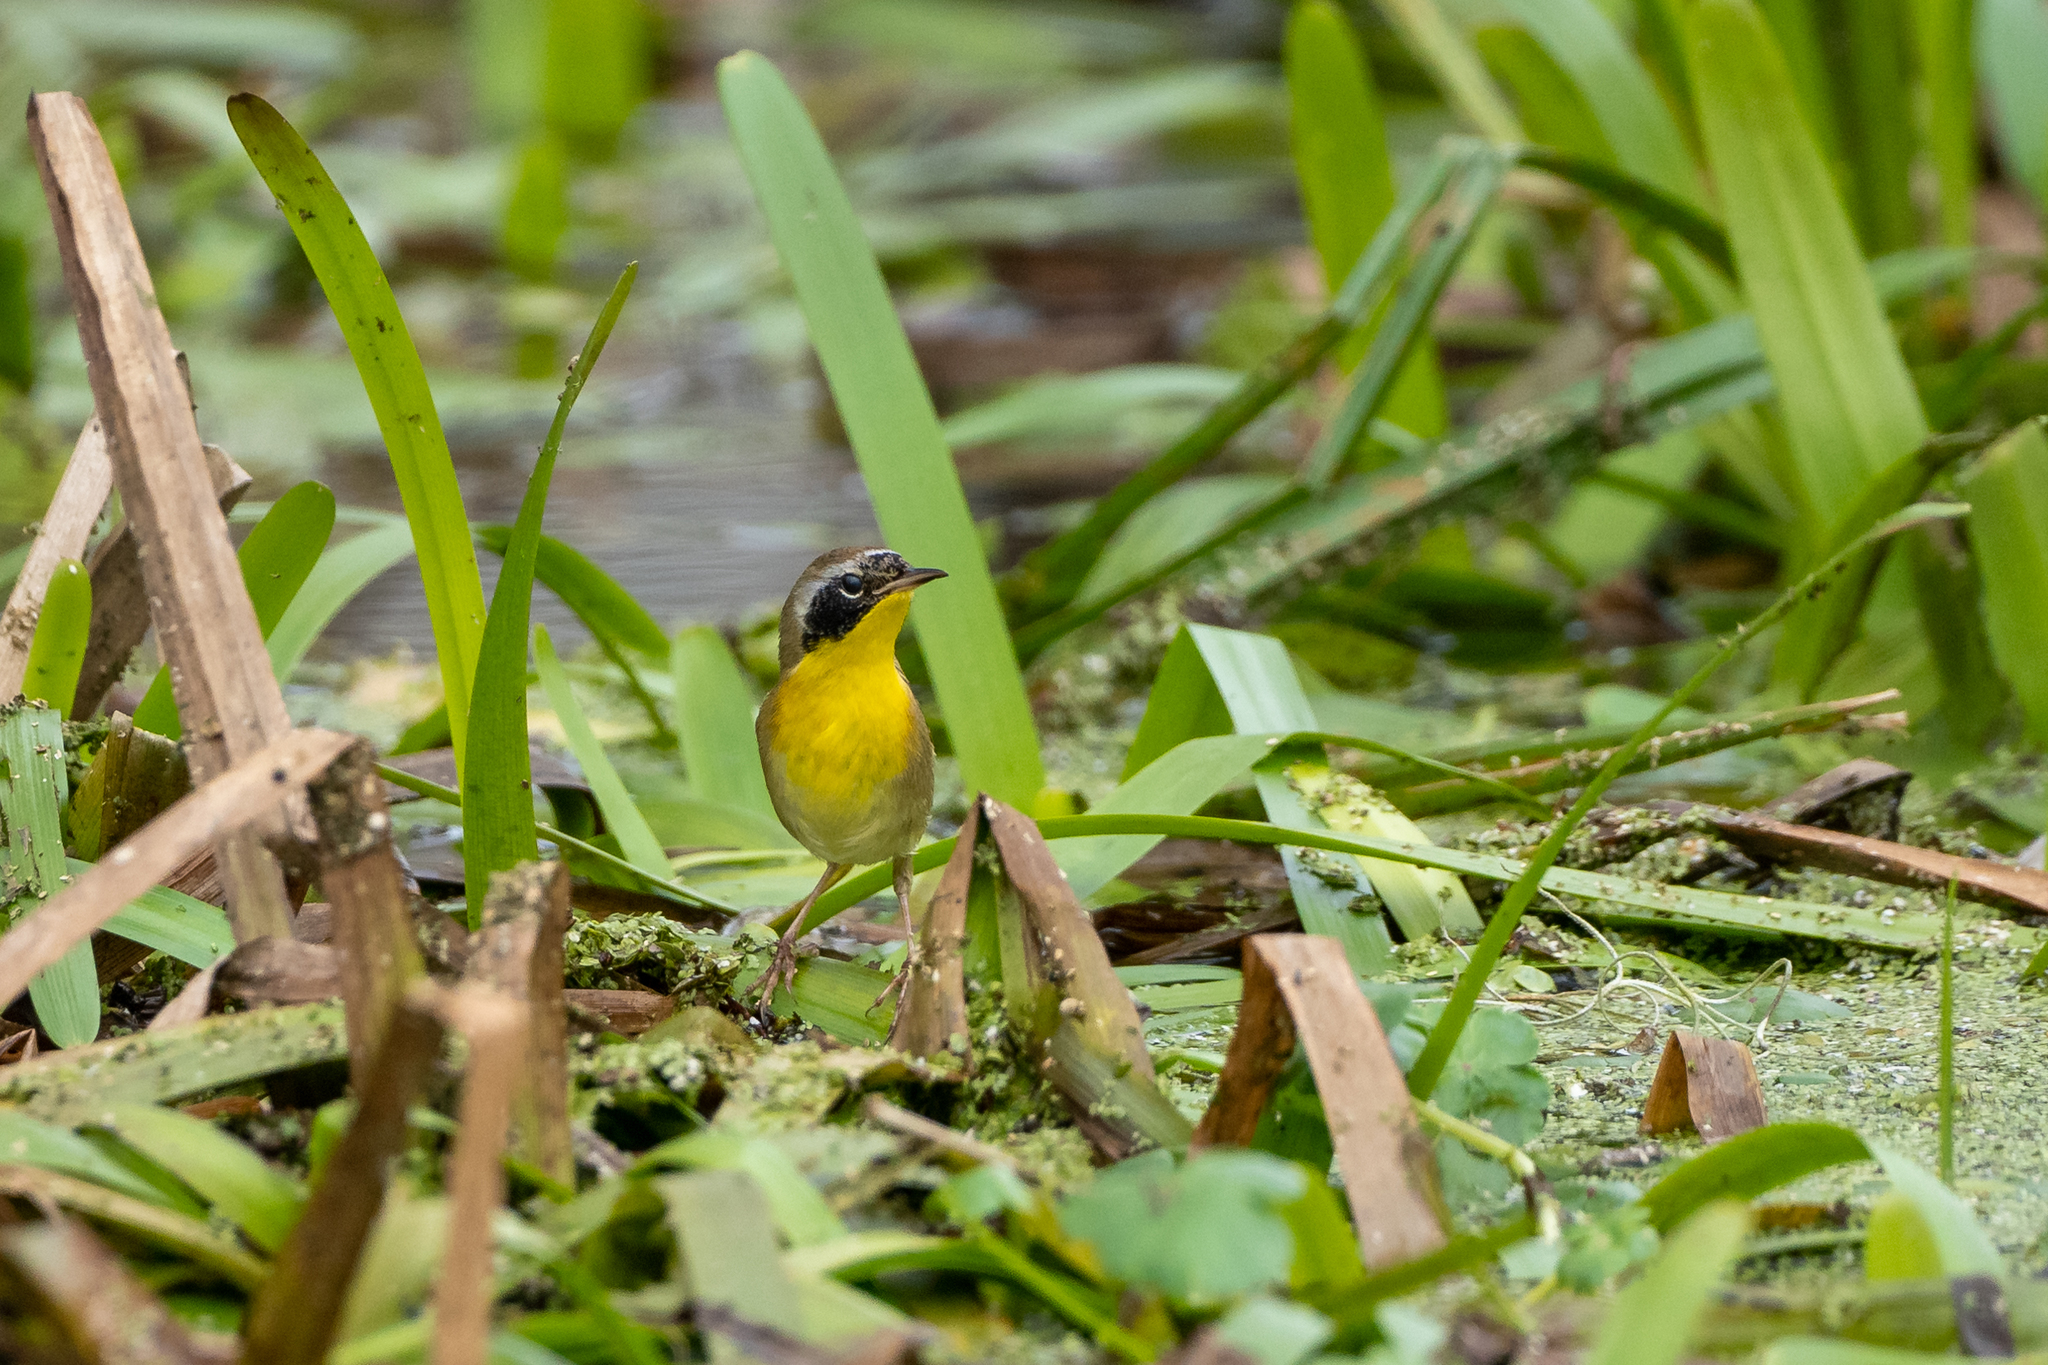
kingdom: Animalia
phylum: Chordata
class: Aves
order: Passeriformes
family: Parulidae
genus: Geothlypis
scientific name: Geothlypis trichas
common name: Common yellowthroat
